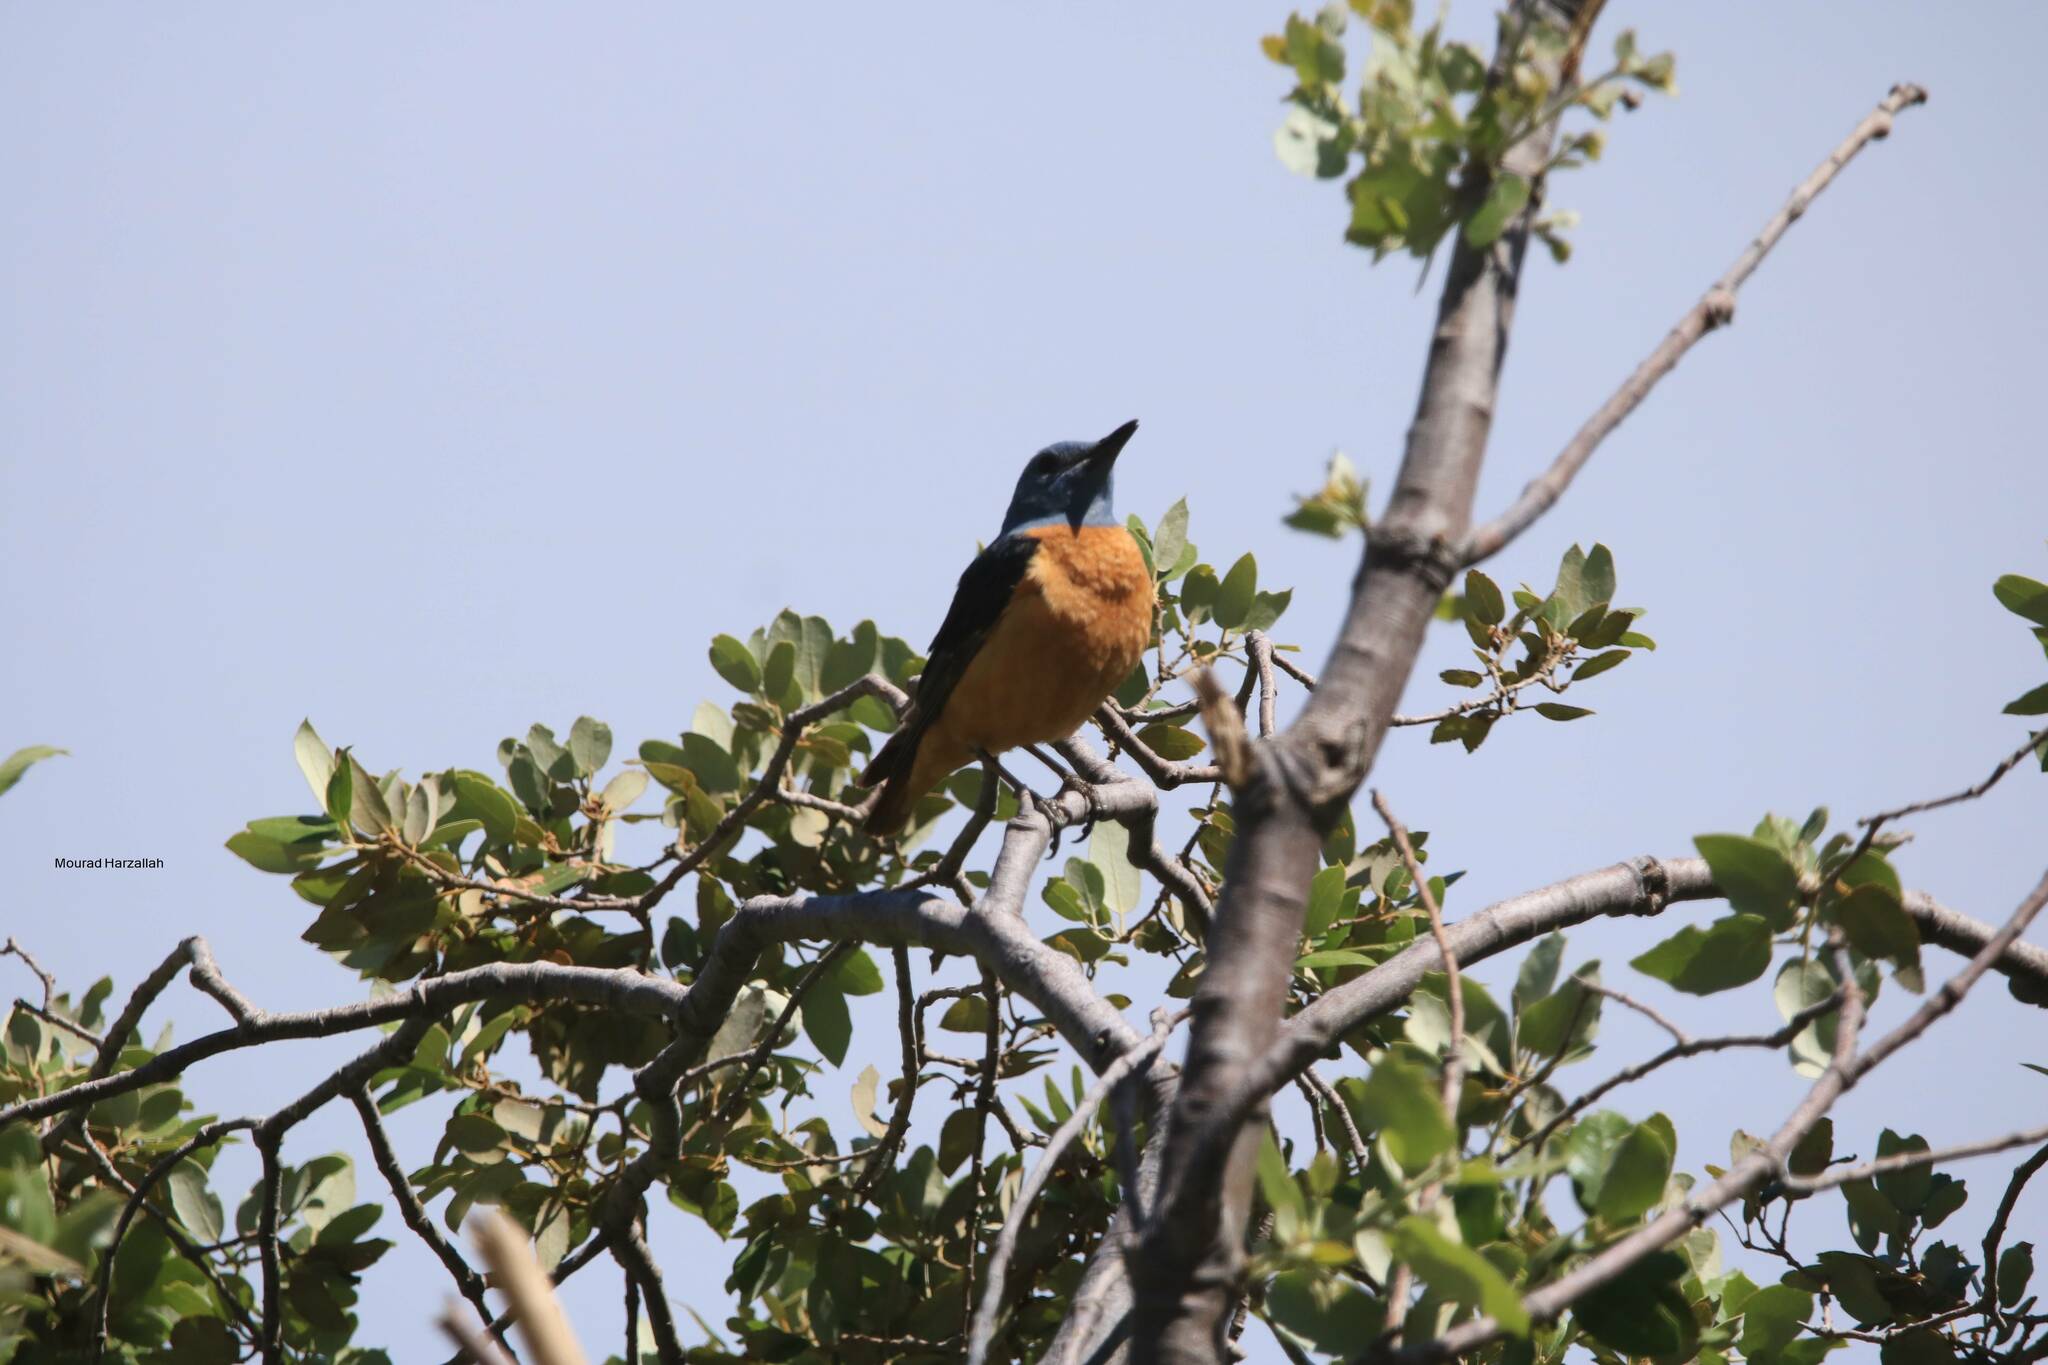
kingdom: Animalia
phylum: Chordata
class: Aves
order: Passeriformes
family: Muscicapidae
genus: Monticola
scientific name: Monticola saxatilis
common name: Rufous-tailed rock thrush
